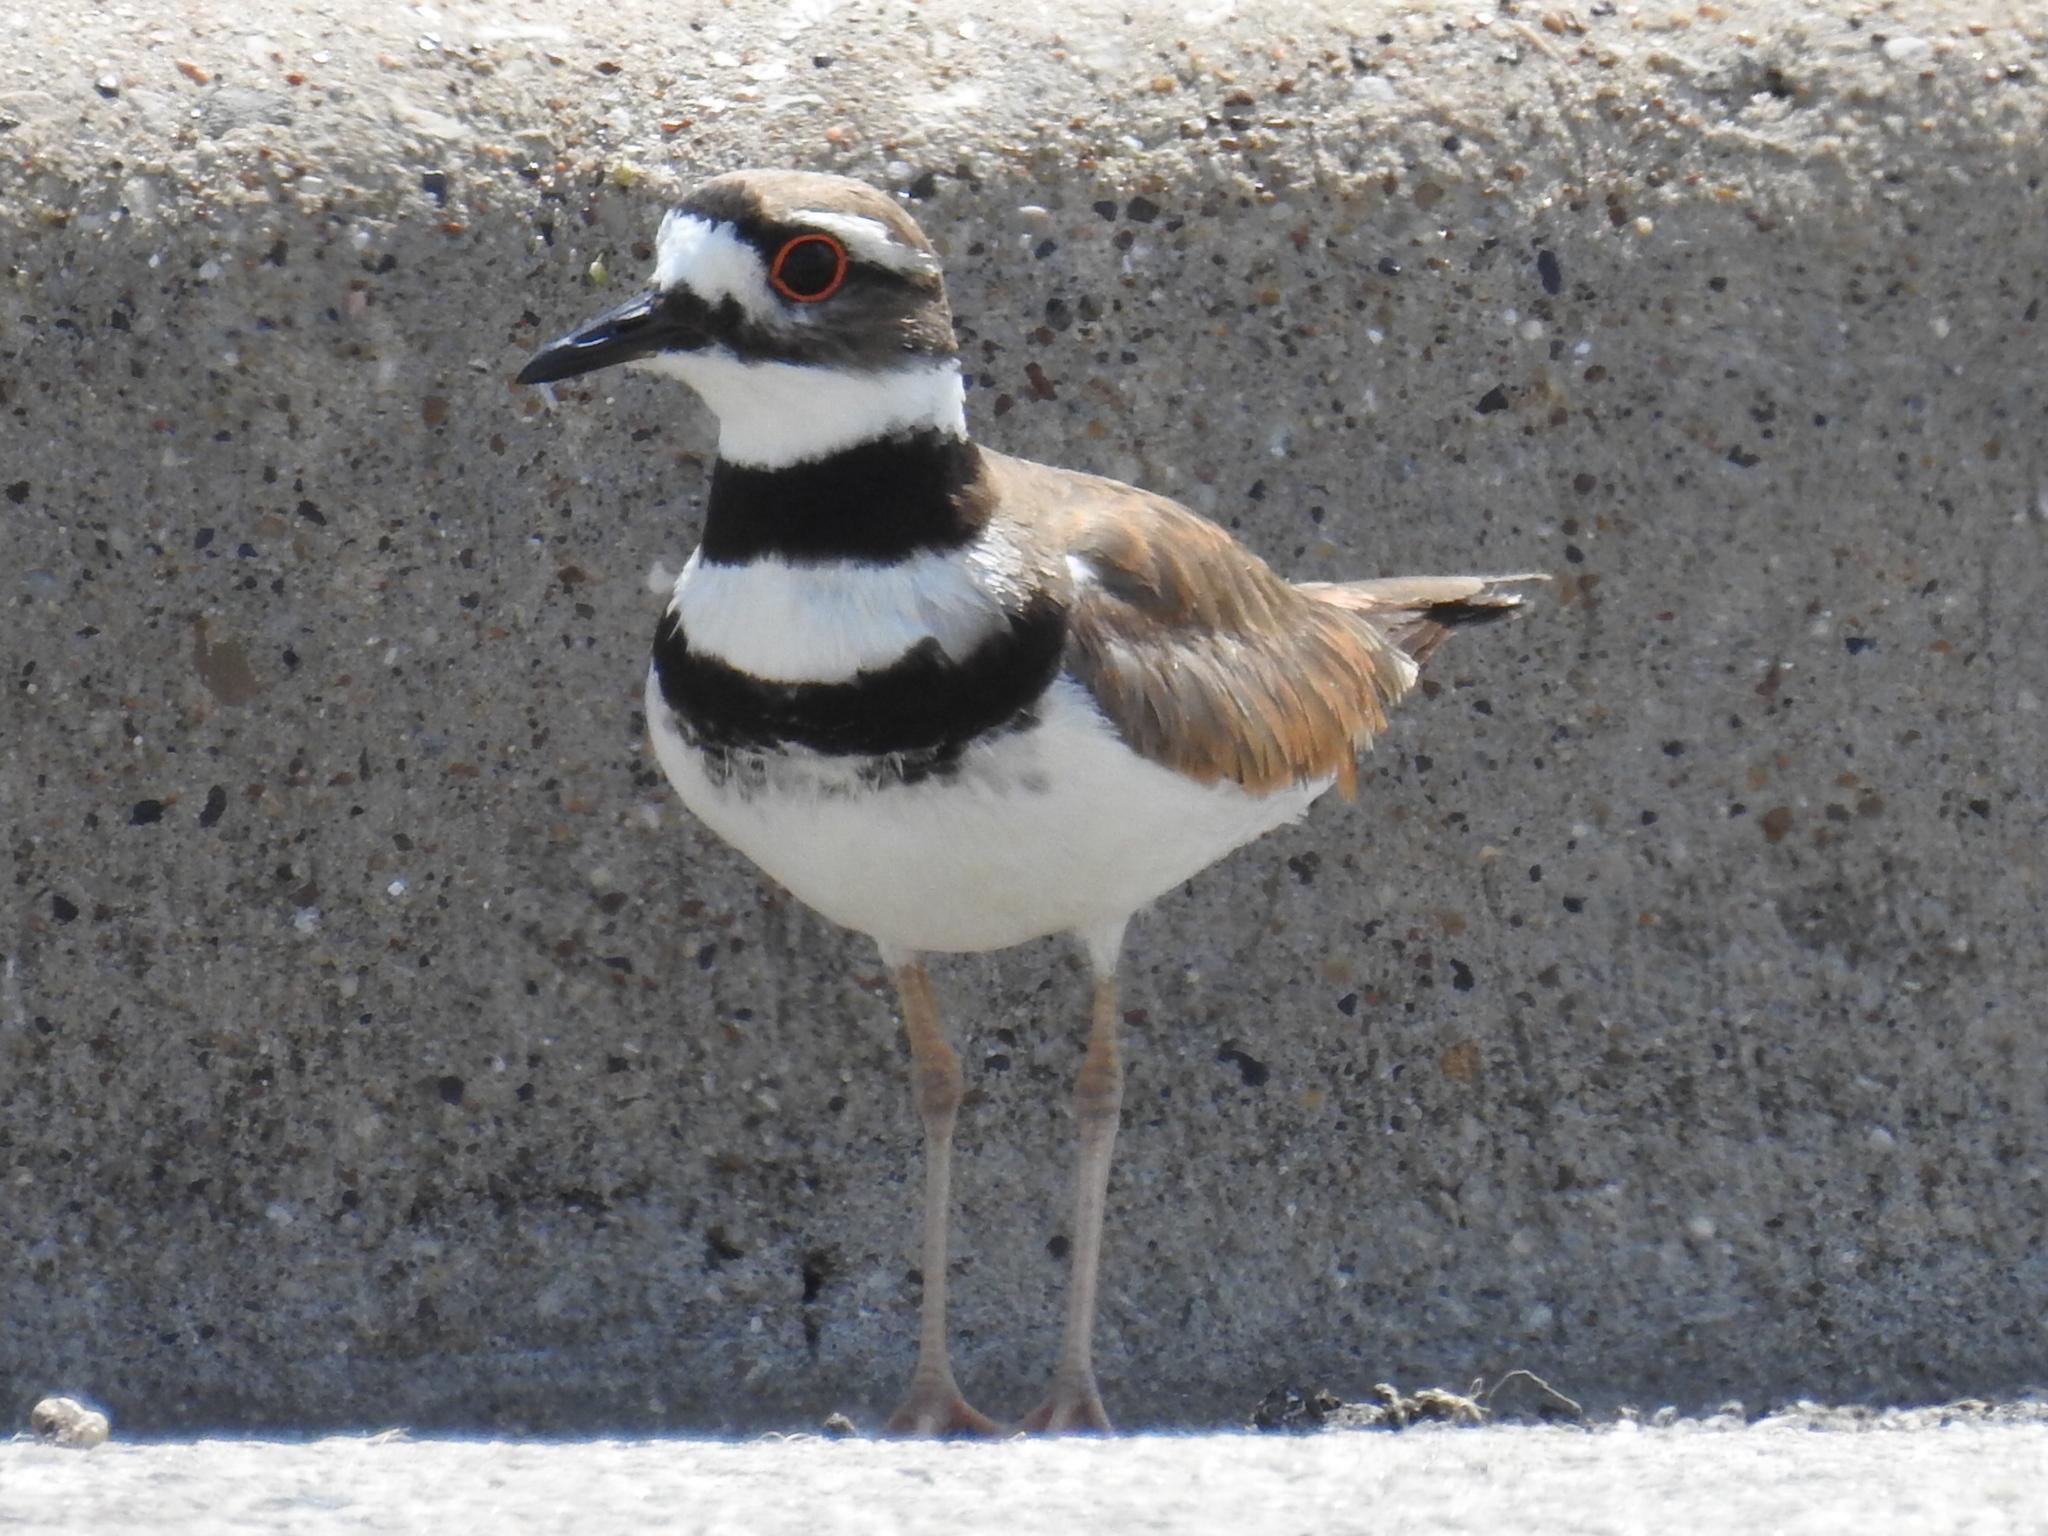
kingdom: Animalia
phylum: Chordata
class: Aves
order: Charadriiformes
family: Charadriidae
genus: Charadrius
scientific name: Charadrius vociferus
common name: Killdeer
